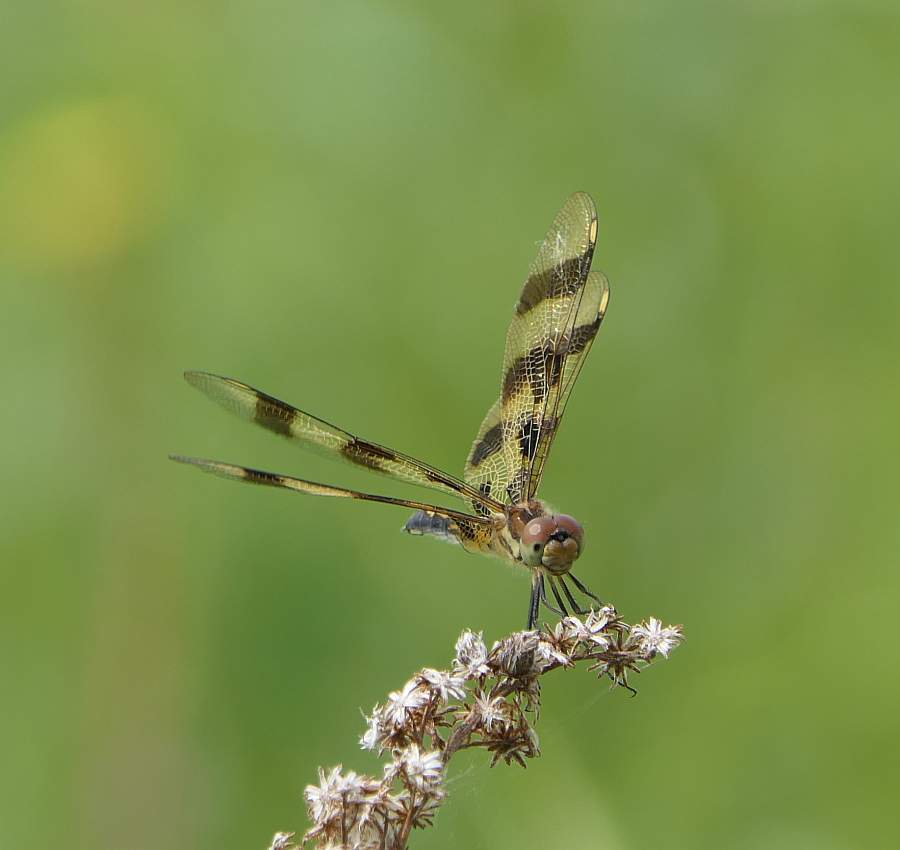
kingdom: Animalia
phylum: Arthropoda
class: Insecta
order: Odonata
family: Libellulidae
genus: Celithemis
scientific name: Celithemis eponina
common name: Halloween pennant
